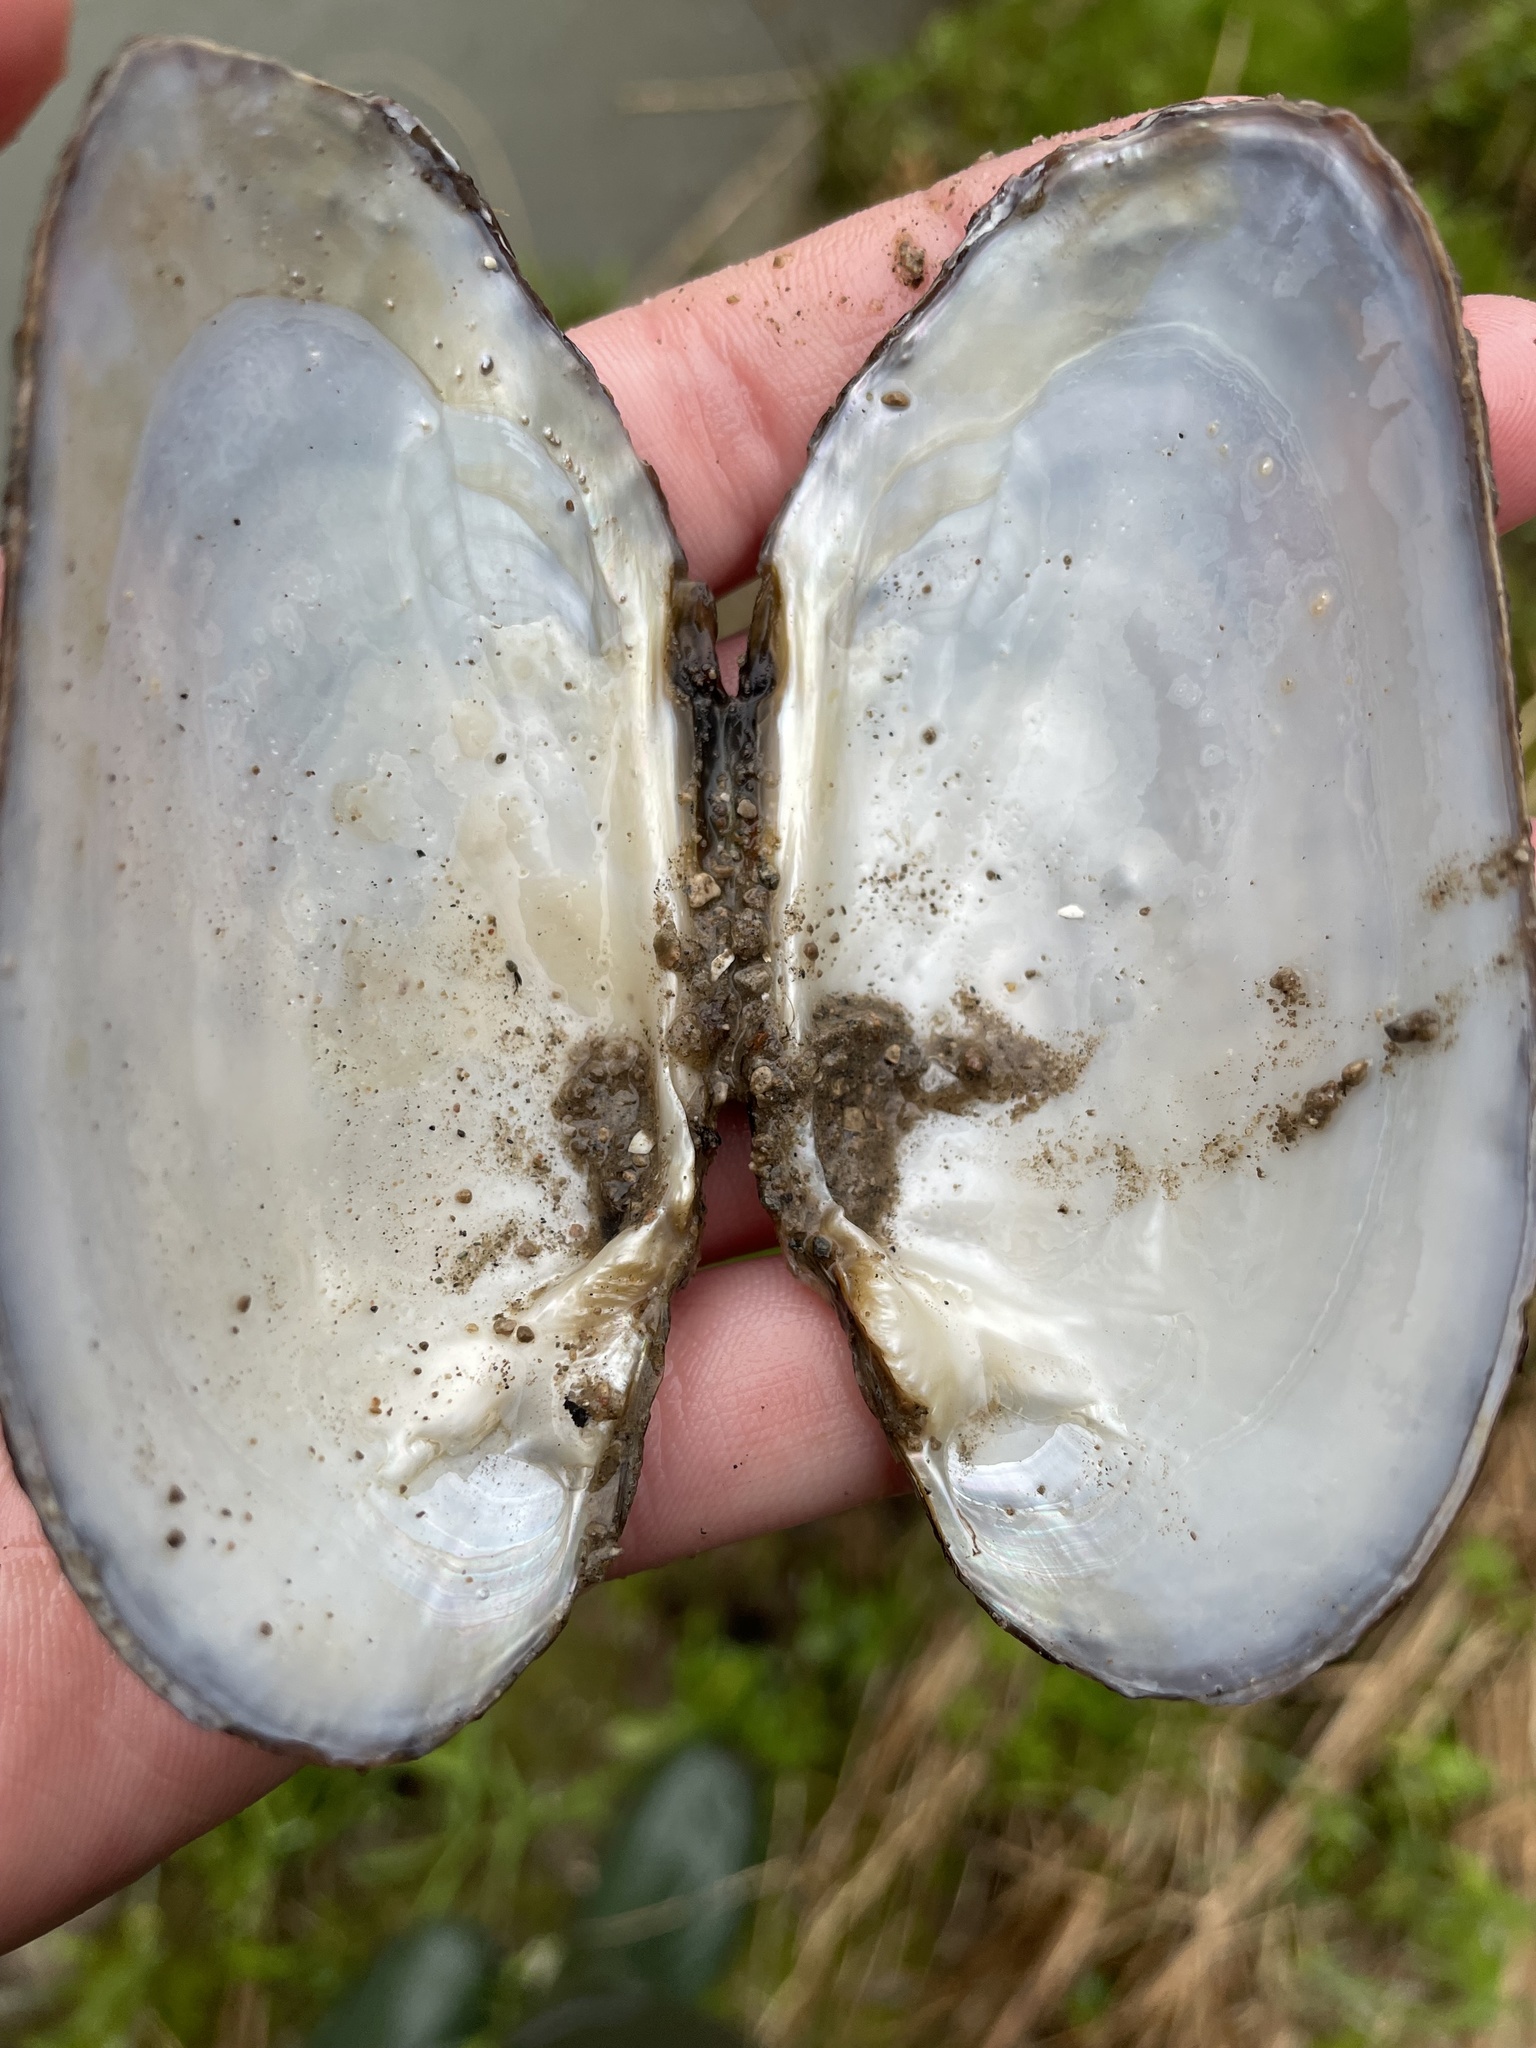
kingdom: Animalia
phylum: Mollusca
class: Bivalvia
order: Unionida
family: Unionidae
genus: Lasmigona
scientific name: Lasmigona costata
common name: Flutedshell
